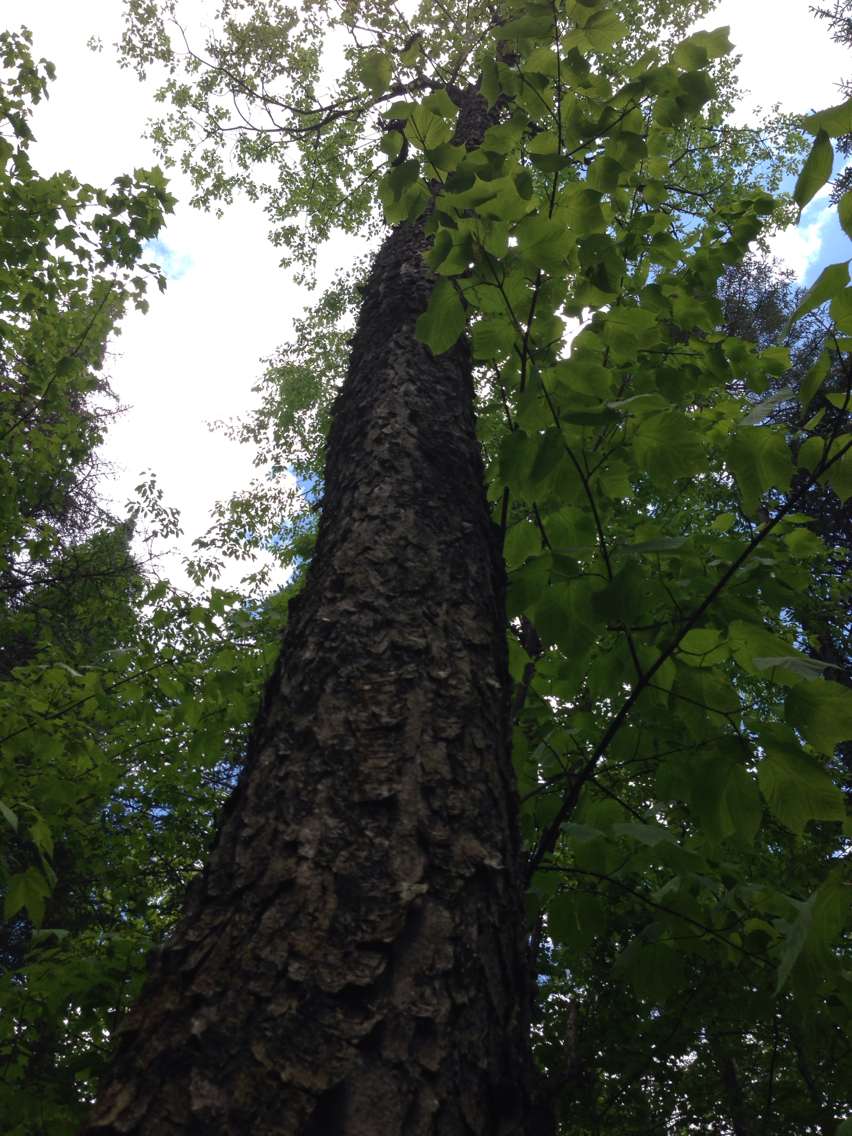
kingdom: Plantae
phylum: Tracheophyta
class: Magnoliopsida
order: Rosales
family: Rosaceae
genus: Prunus
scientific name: Prunus serotina
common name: Black cherry
